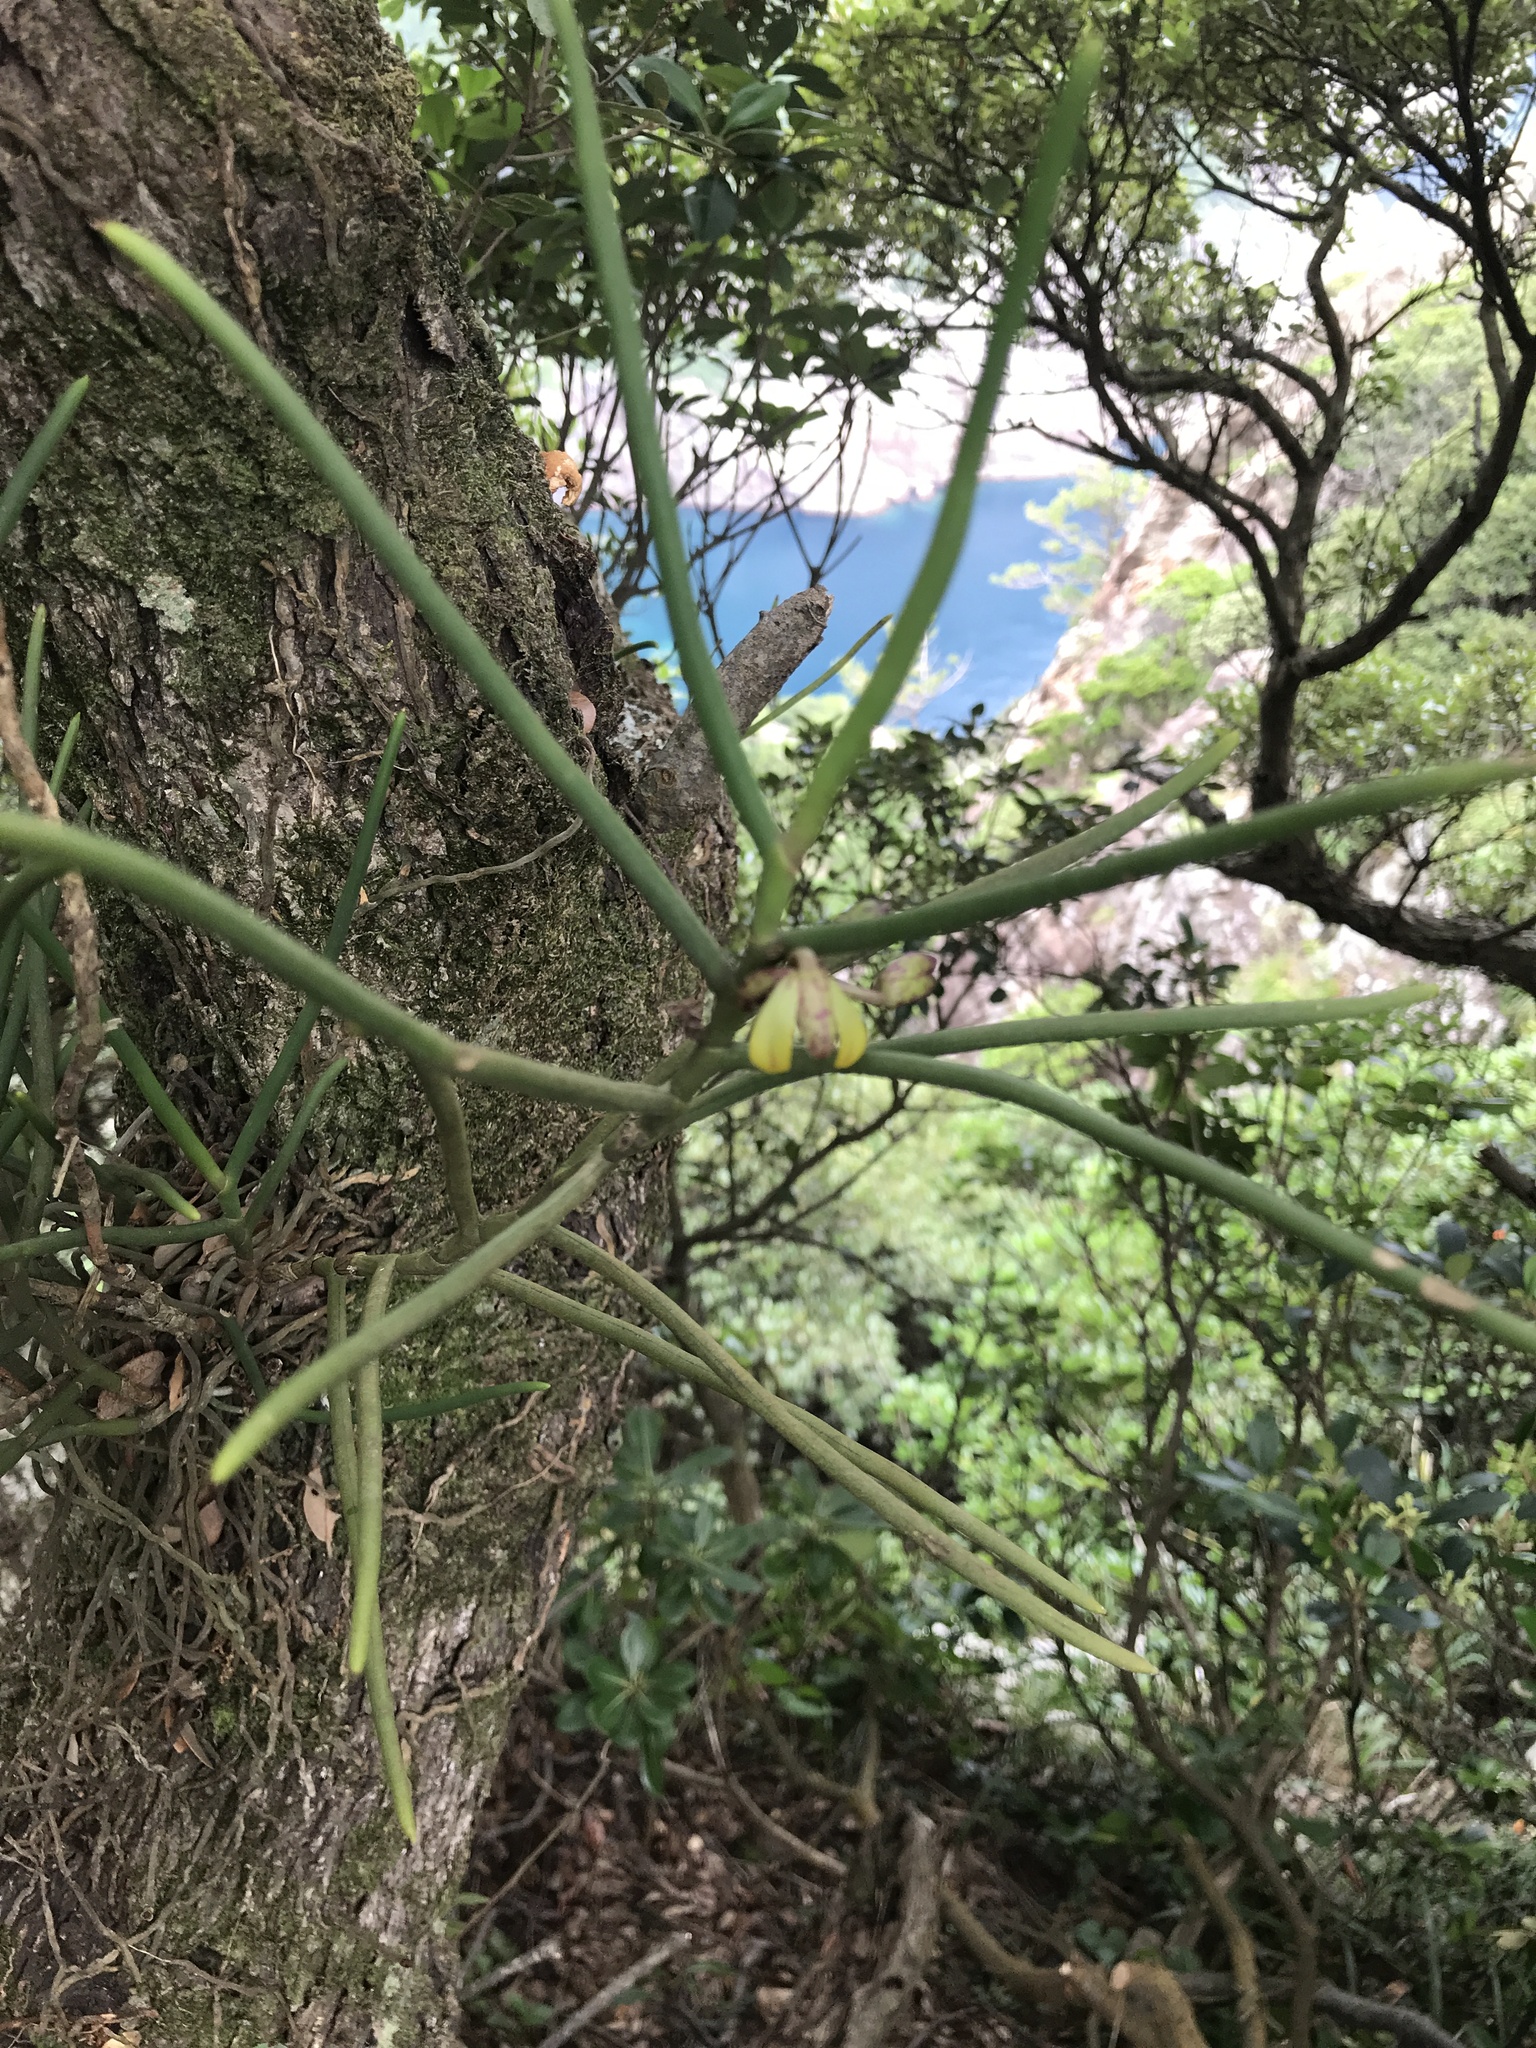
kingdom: Plantae
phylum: Tracheophyta
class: Liliopsida
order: Asparagales
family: Orchidaceae
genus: Luisia
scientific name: Luisia teres
